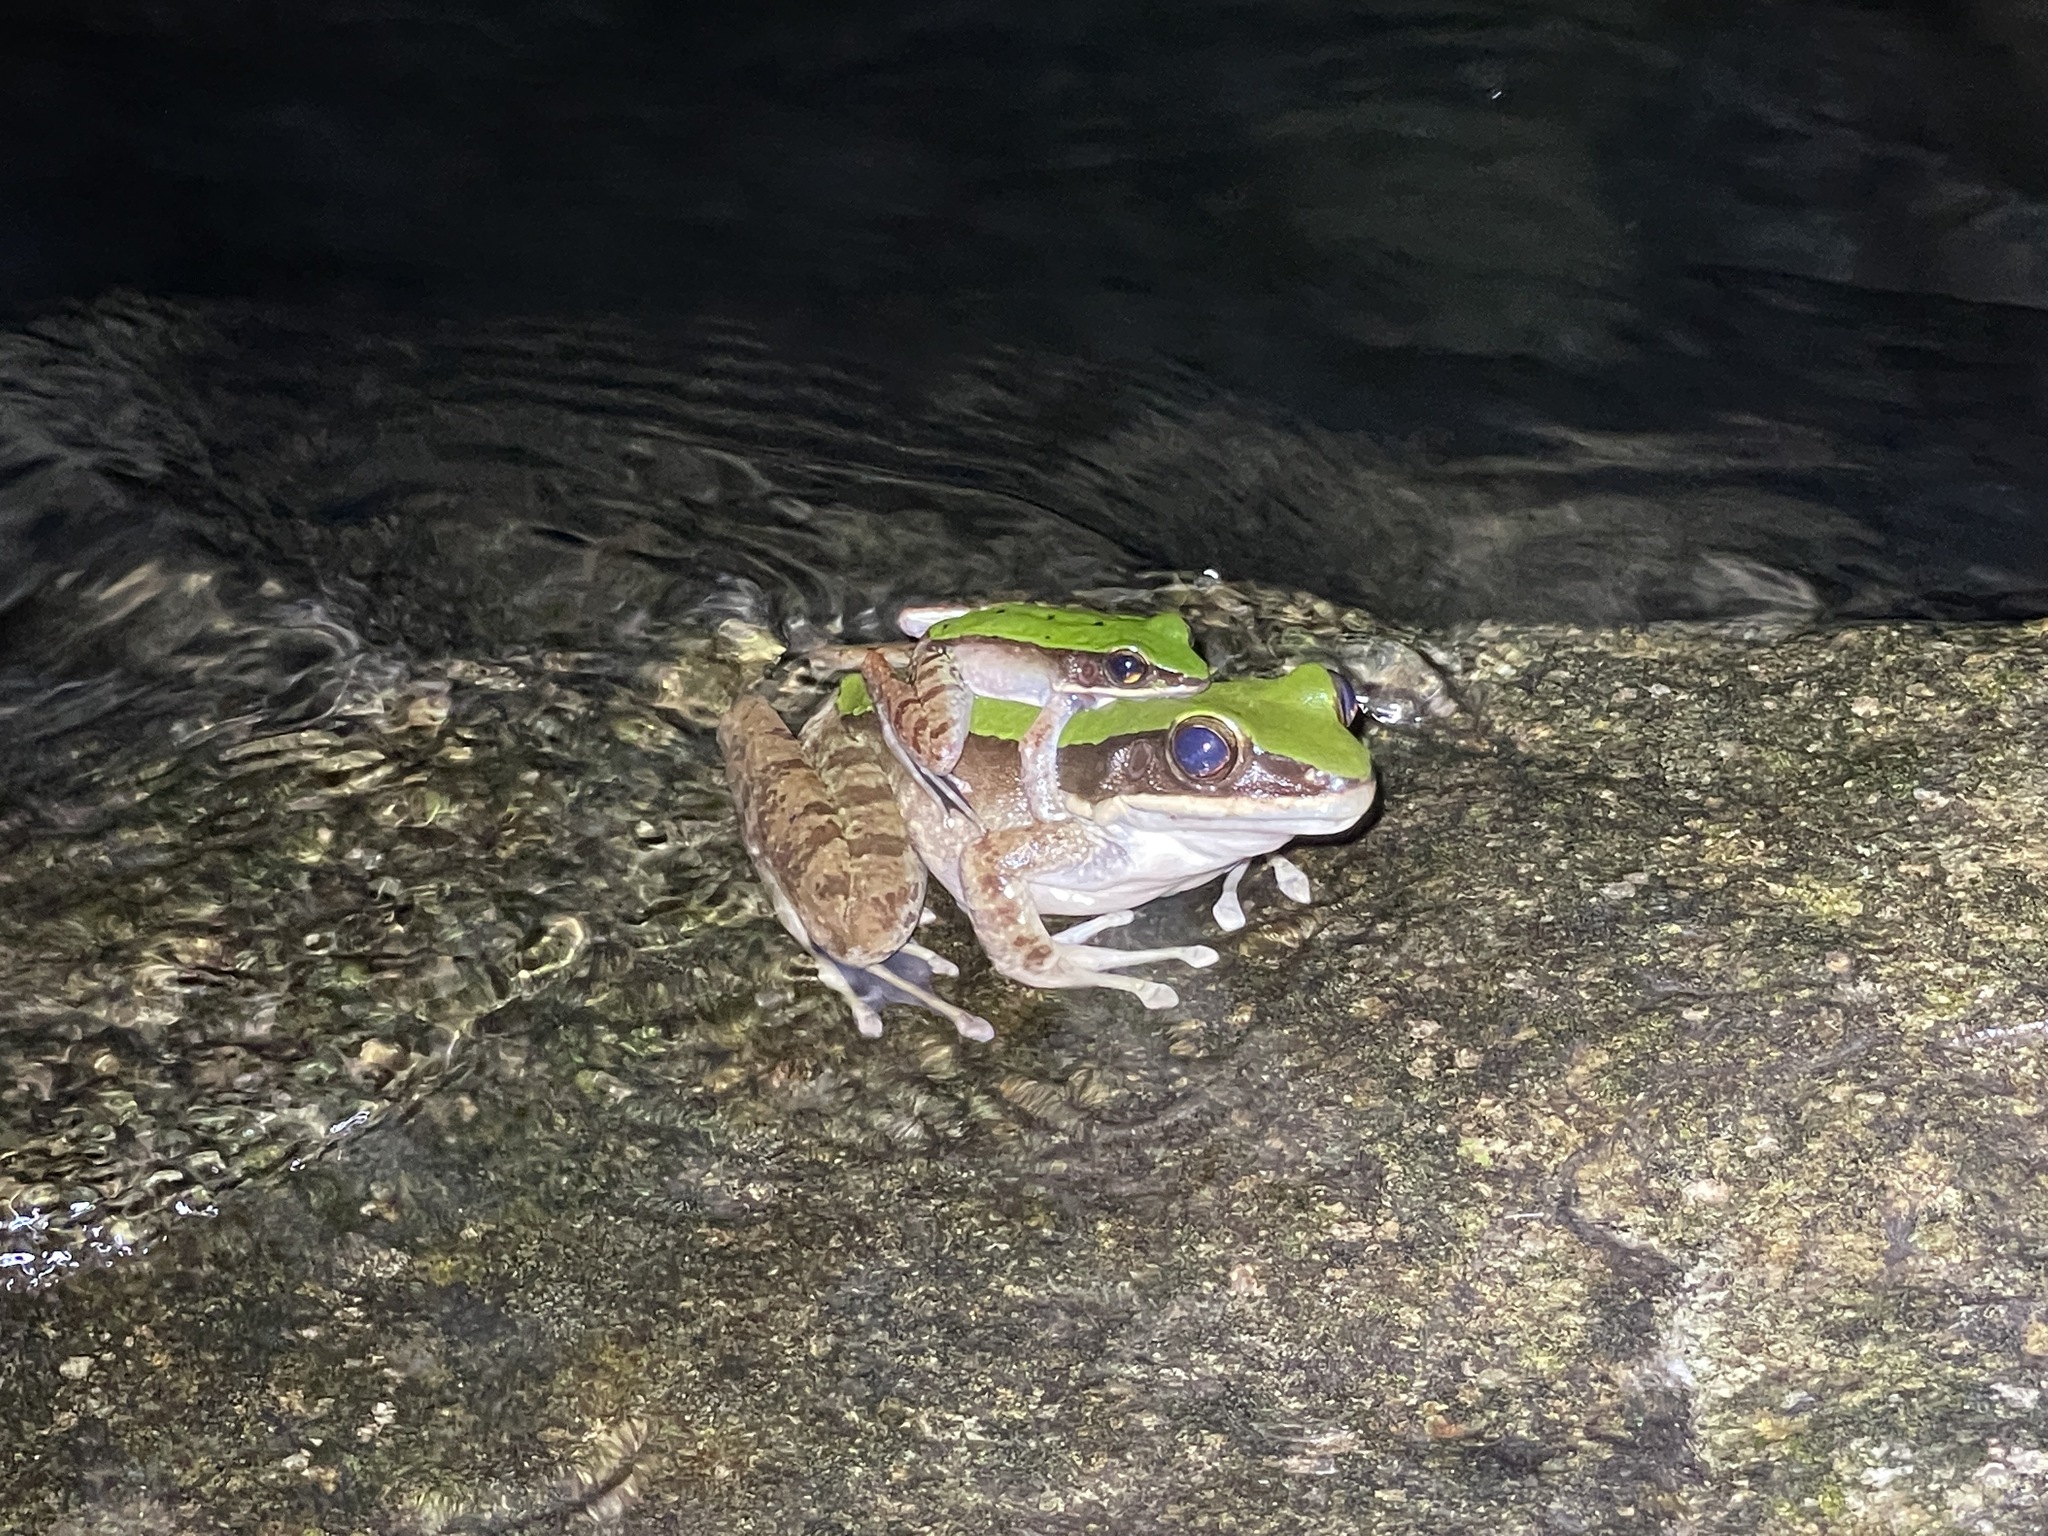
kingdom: Animalia
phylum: Chordata
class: Amphibia
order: Anura
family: Ranidae
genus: Odorrana
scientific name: Odorrana graminea
